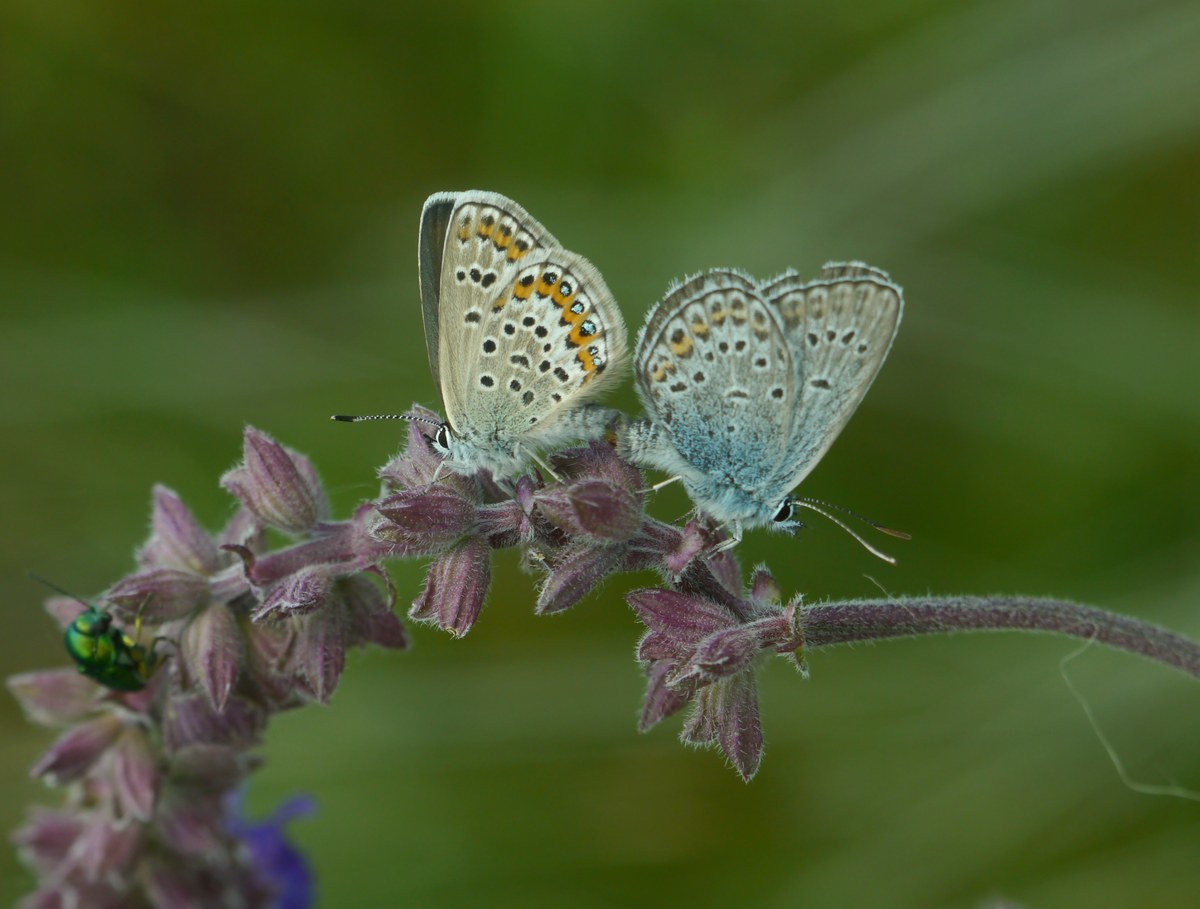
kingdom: Animalia
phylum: Arthropoda
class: Insecta
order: Lepidoptera
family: Lycaenidae
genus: Plebejus
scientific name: Plebejus argus
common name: Silver-studded blue
